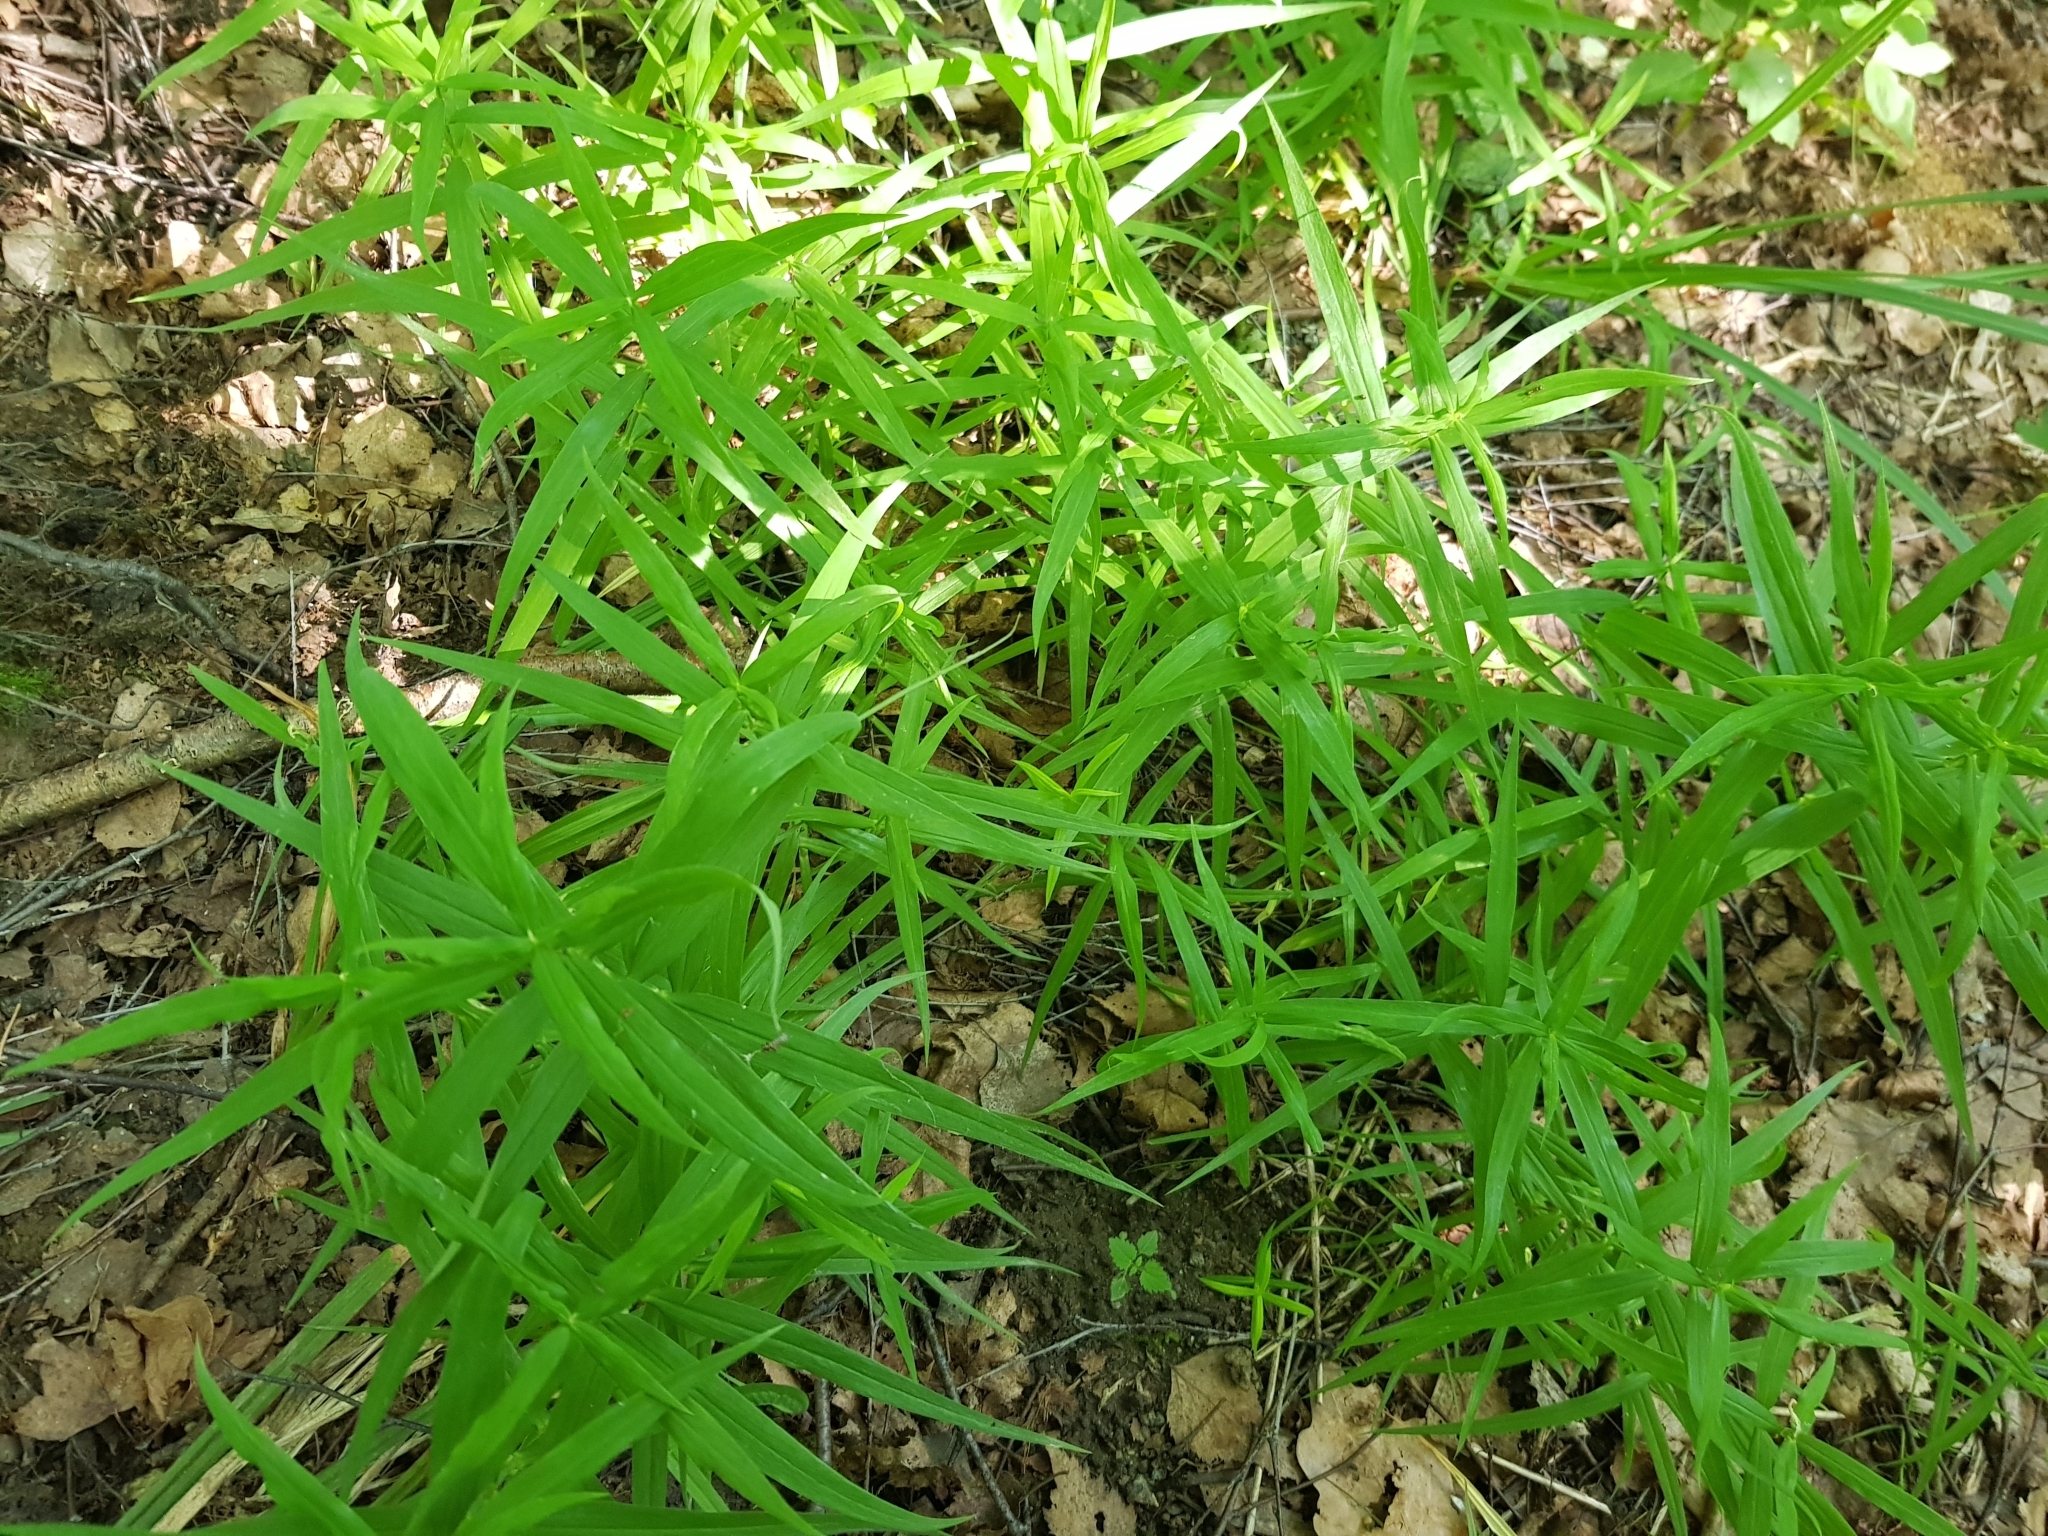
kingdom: Plantae
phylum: Tracheophyta
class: Magnoliopsida
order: Caryophyllales
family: Caryophyllaceae
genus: Rabelera
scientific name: Rabelera holostea
